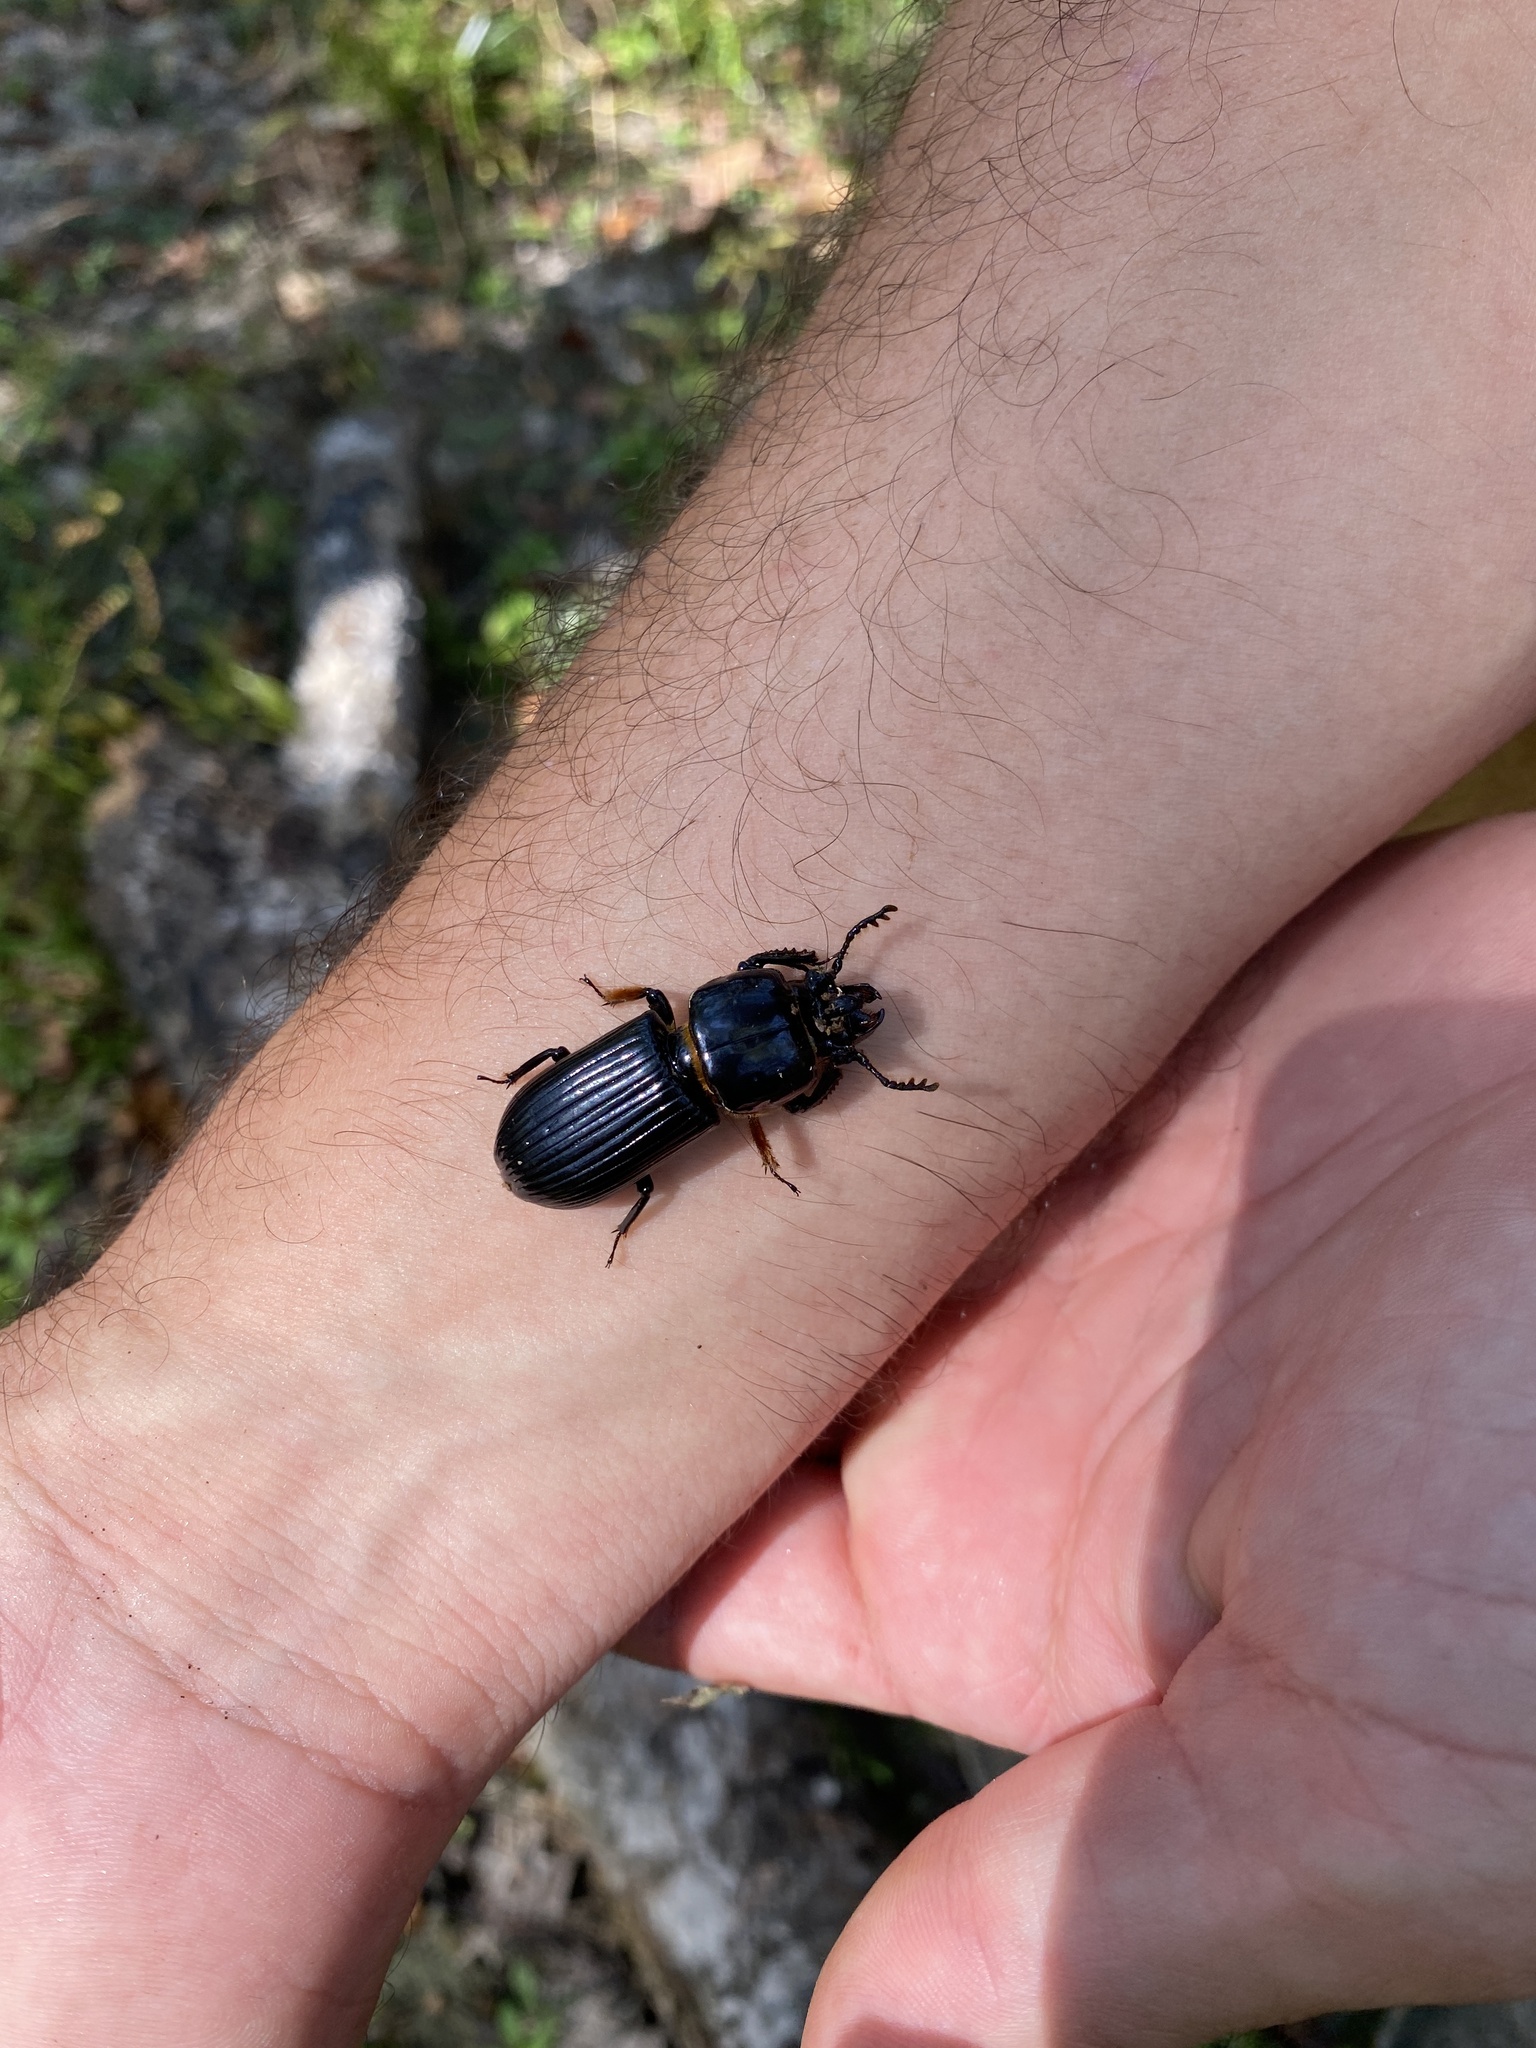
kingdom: Animalia
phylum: Arthropoda
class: Insecta
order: Coleoptera
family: Passalidae
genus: Odontotaenius
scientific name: Odontotaenius disjunctus
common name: Patent leather beetle
